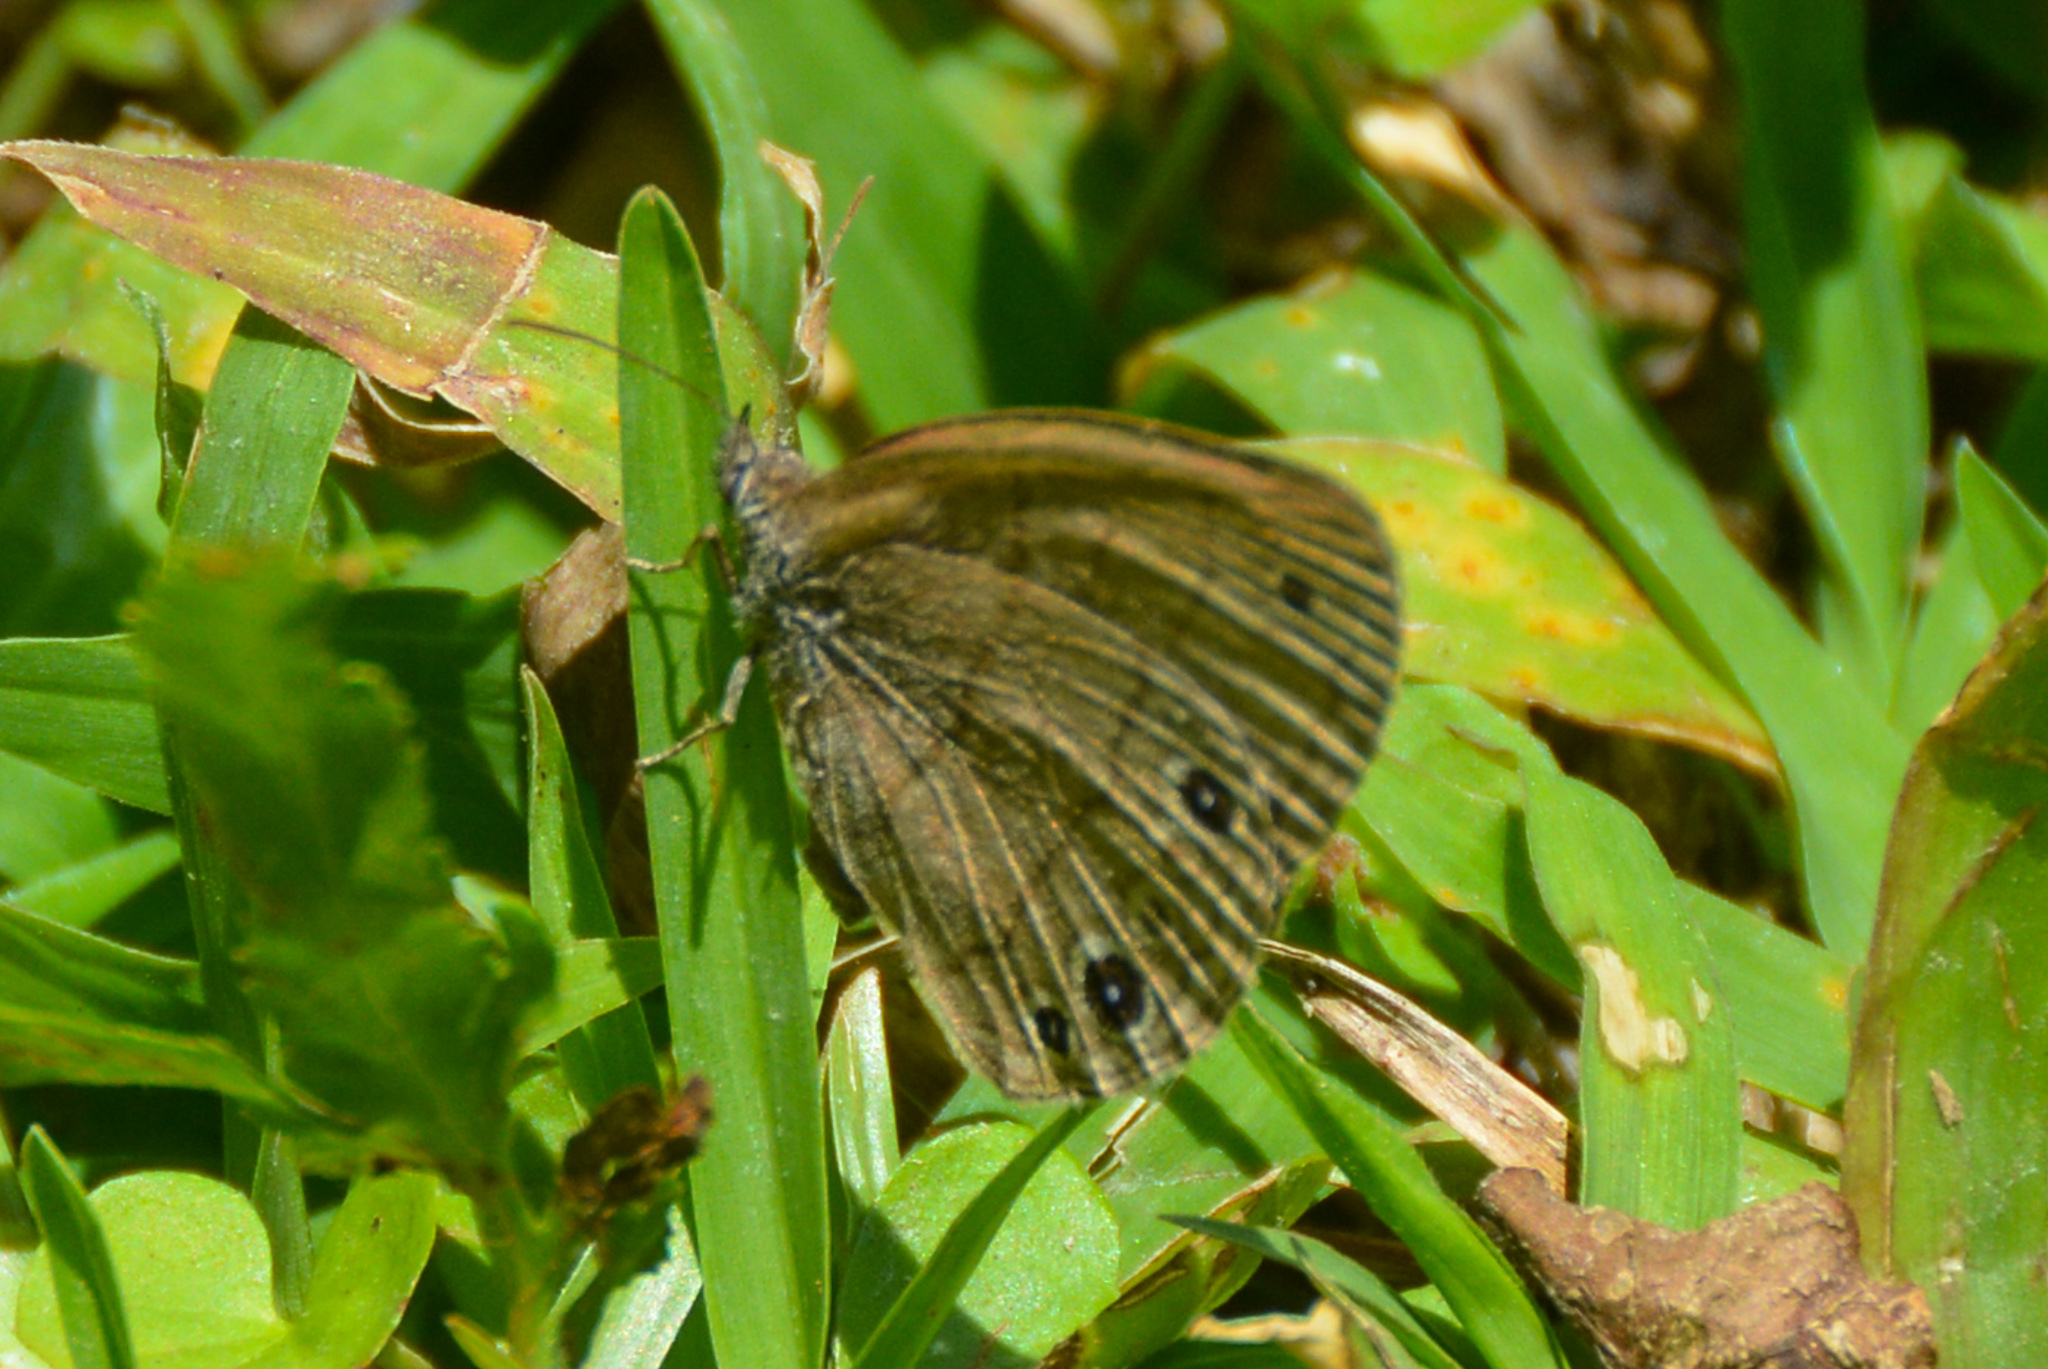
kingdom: Animalia
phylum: Arthropoda
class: Insecta
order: Lepidoptera
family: Nymphalidae
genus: Hermeuptychia
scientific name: Hermeuptychia hermes
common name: Hermes satyr
